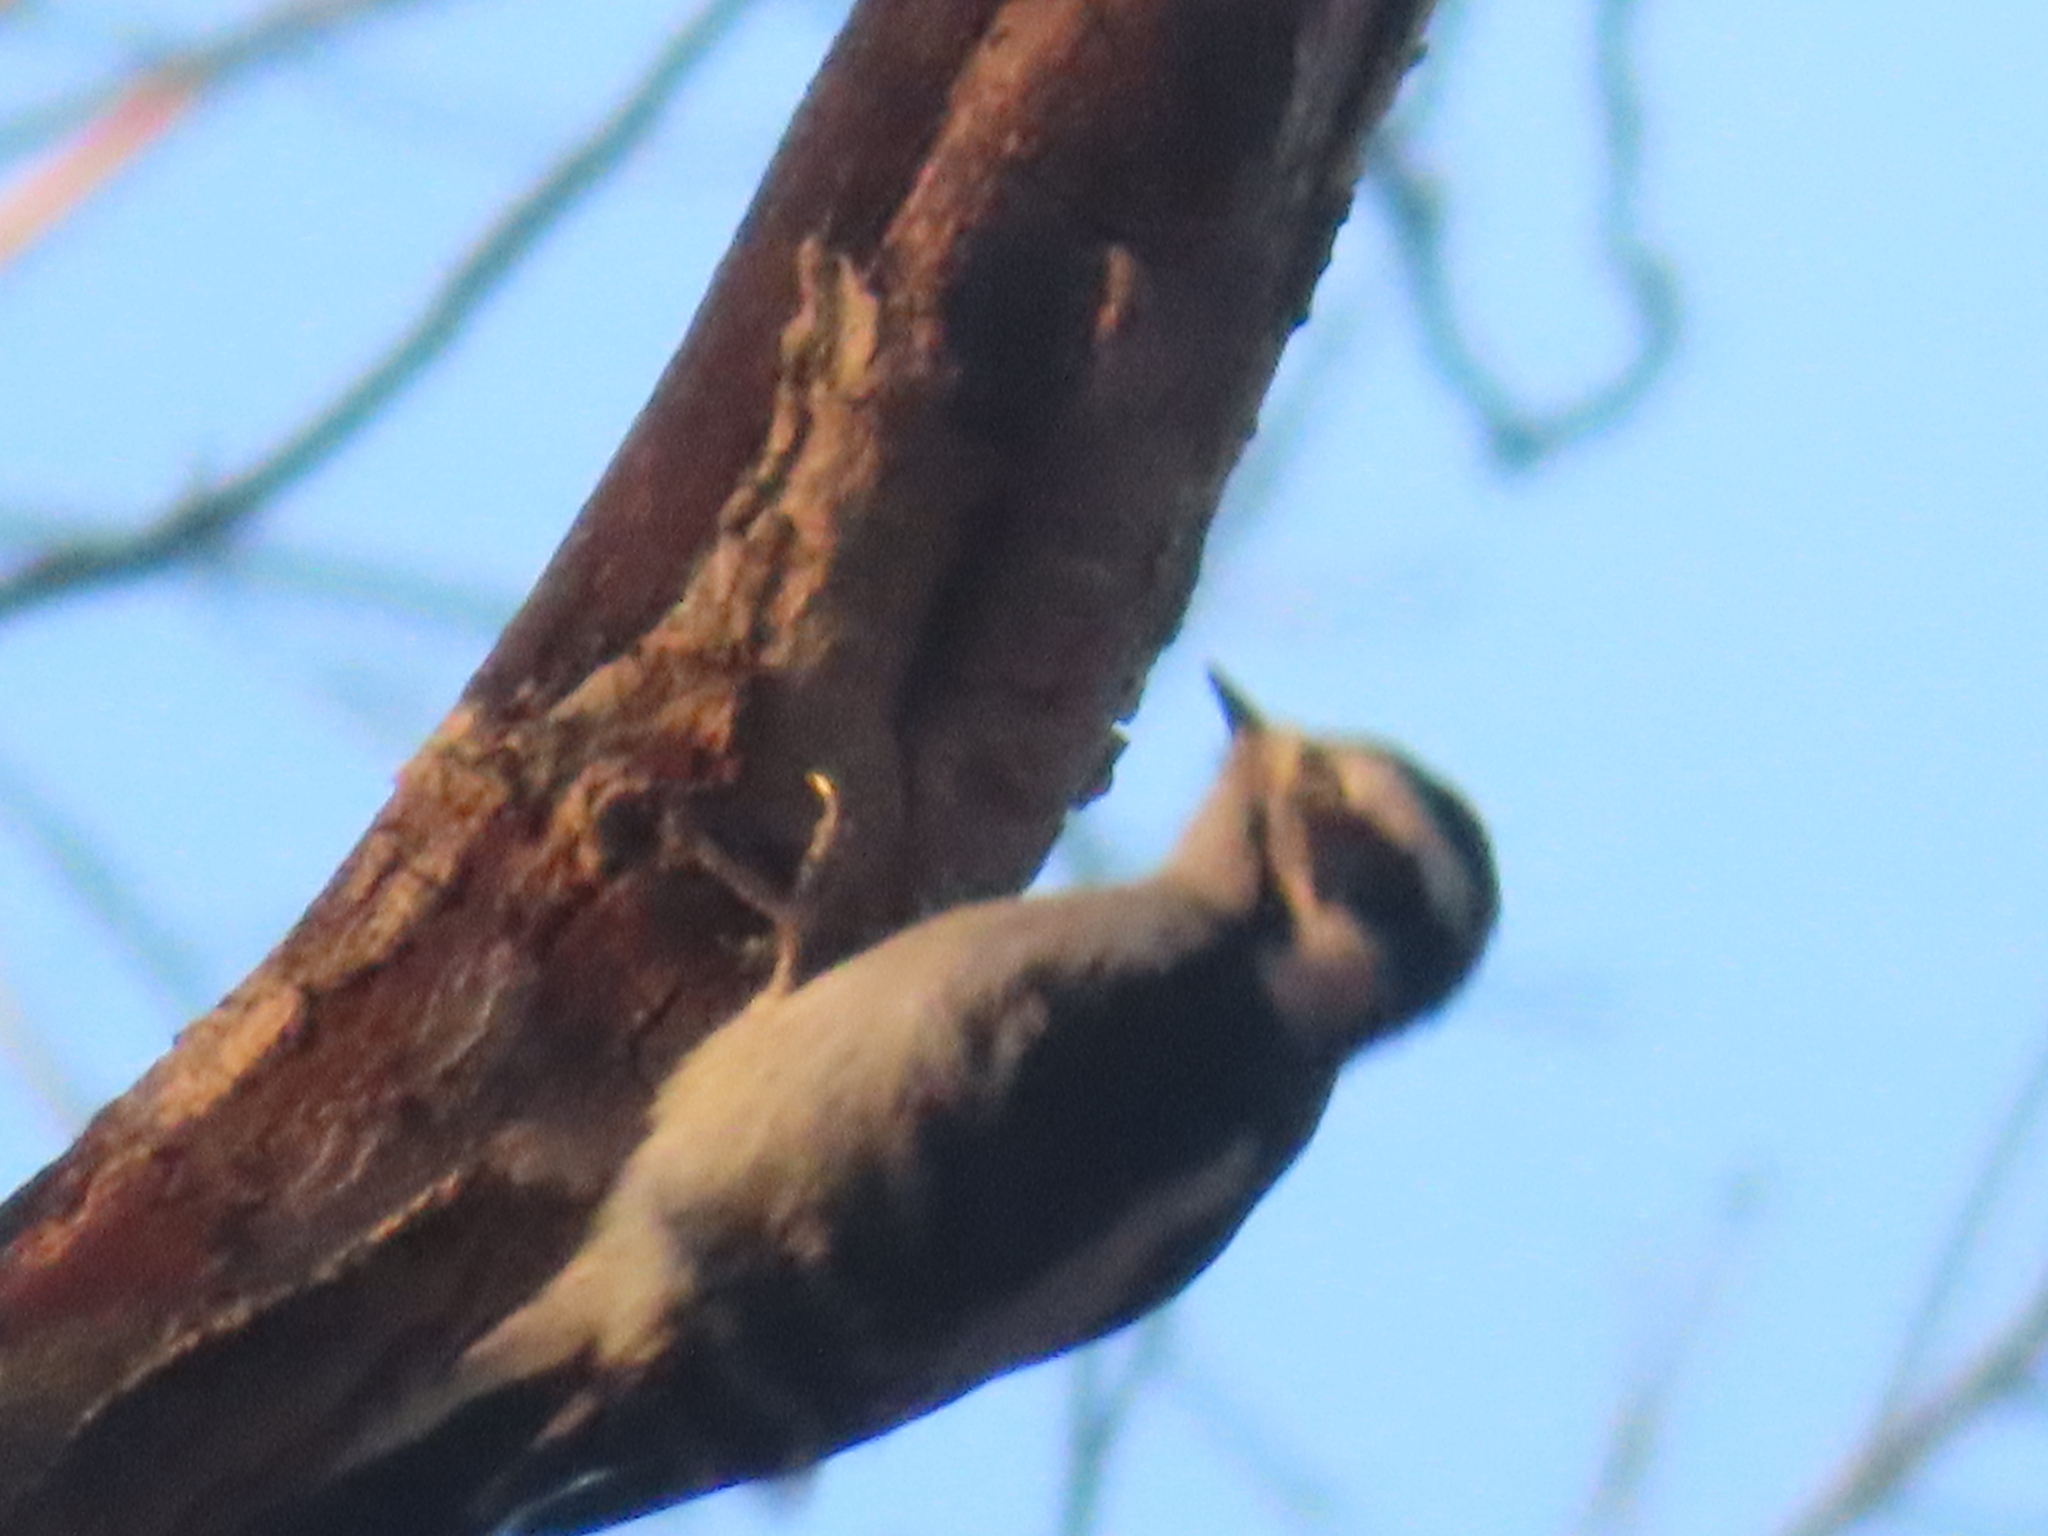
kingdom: Animalia
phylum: Chordata
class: Aves
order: Piciformes
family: Picidae
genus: Dryobates
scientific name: Dryobates pubescens
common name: Downy woodpecker
